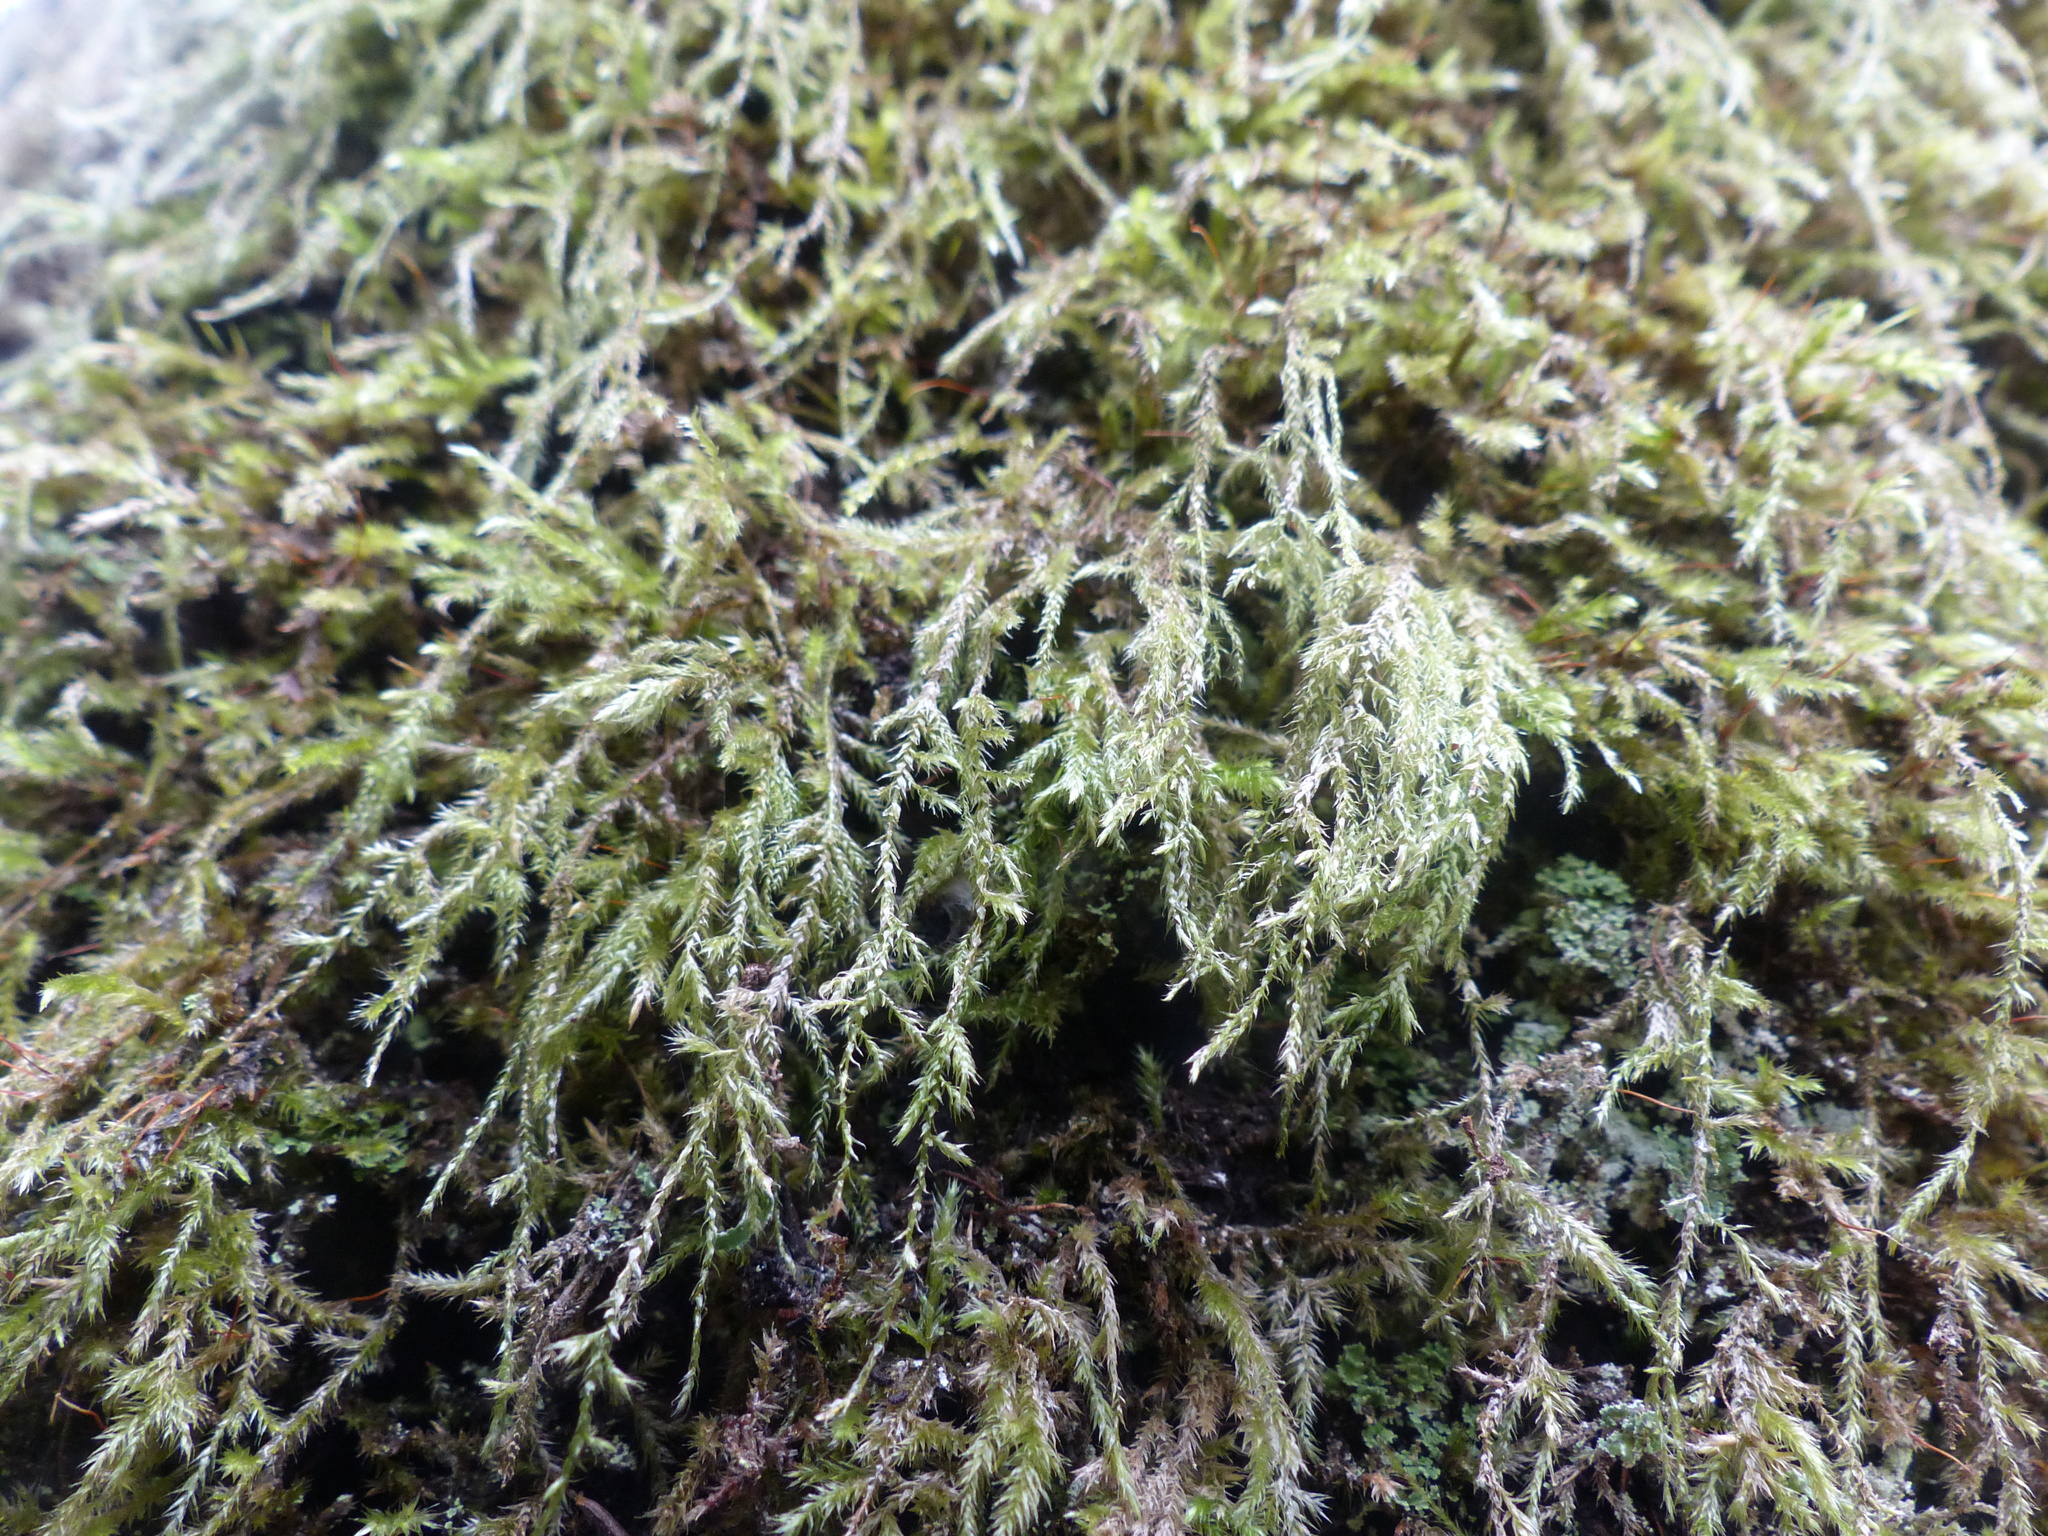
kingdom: Plantae
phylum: Bryophyta
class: Bryopsida
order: Hypnales
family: Lembophyllaceae
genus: Pseudisothecium
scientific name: Pseudisothecium stoloniferum
